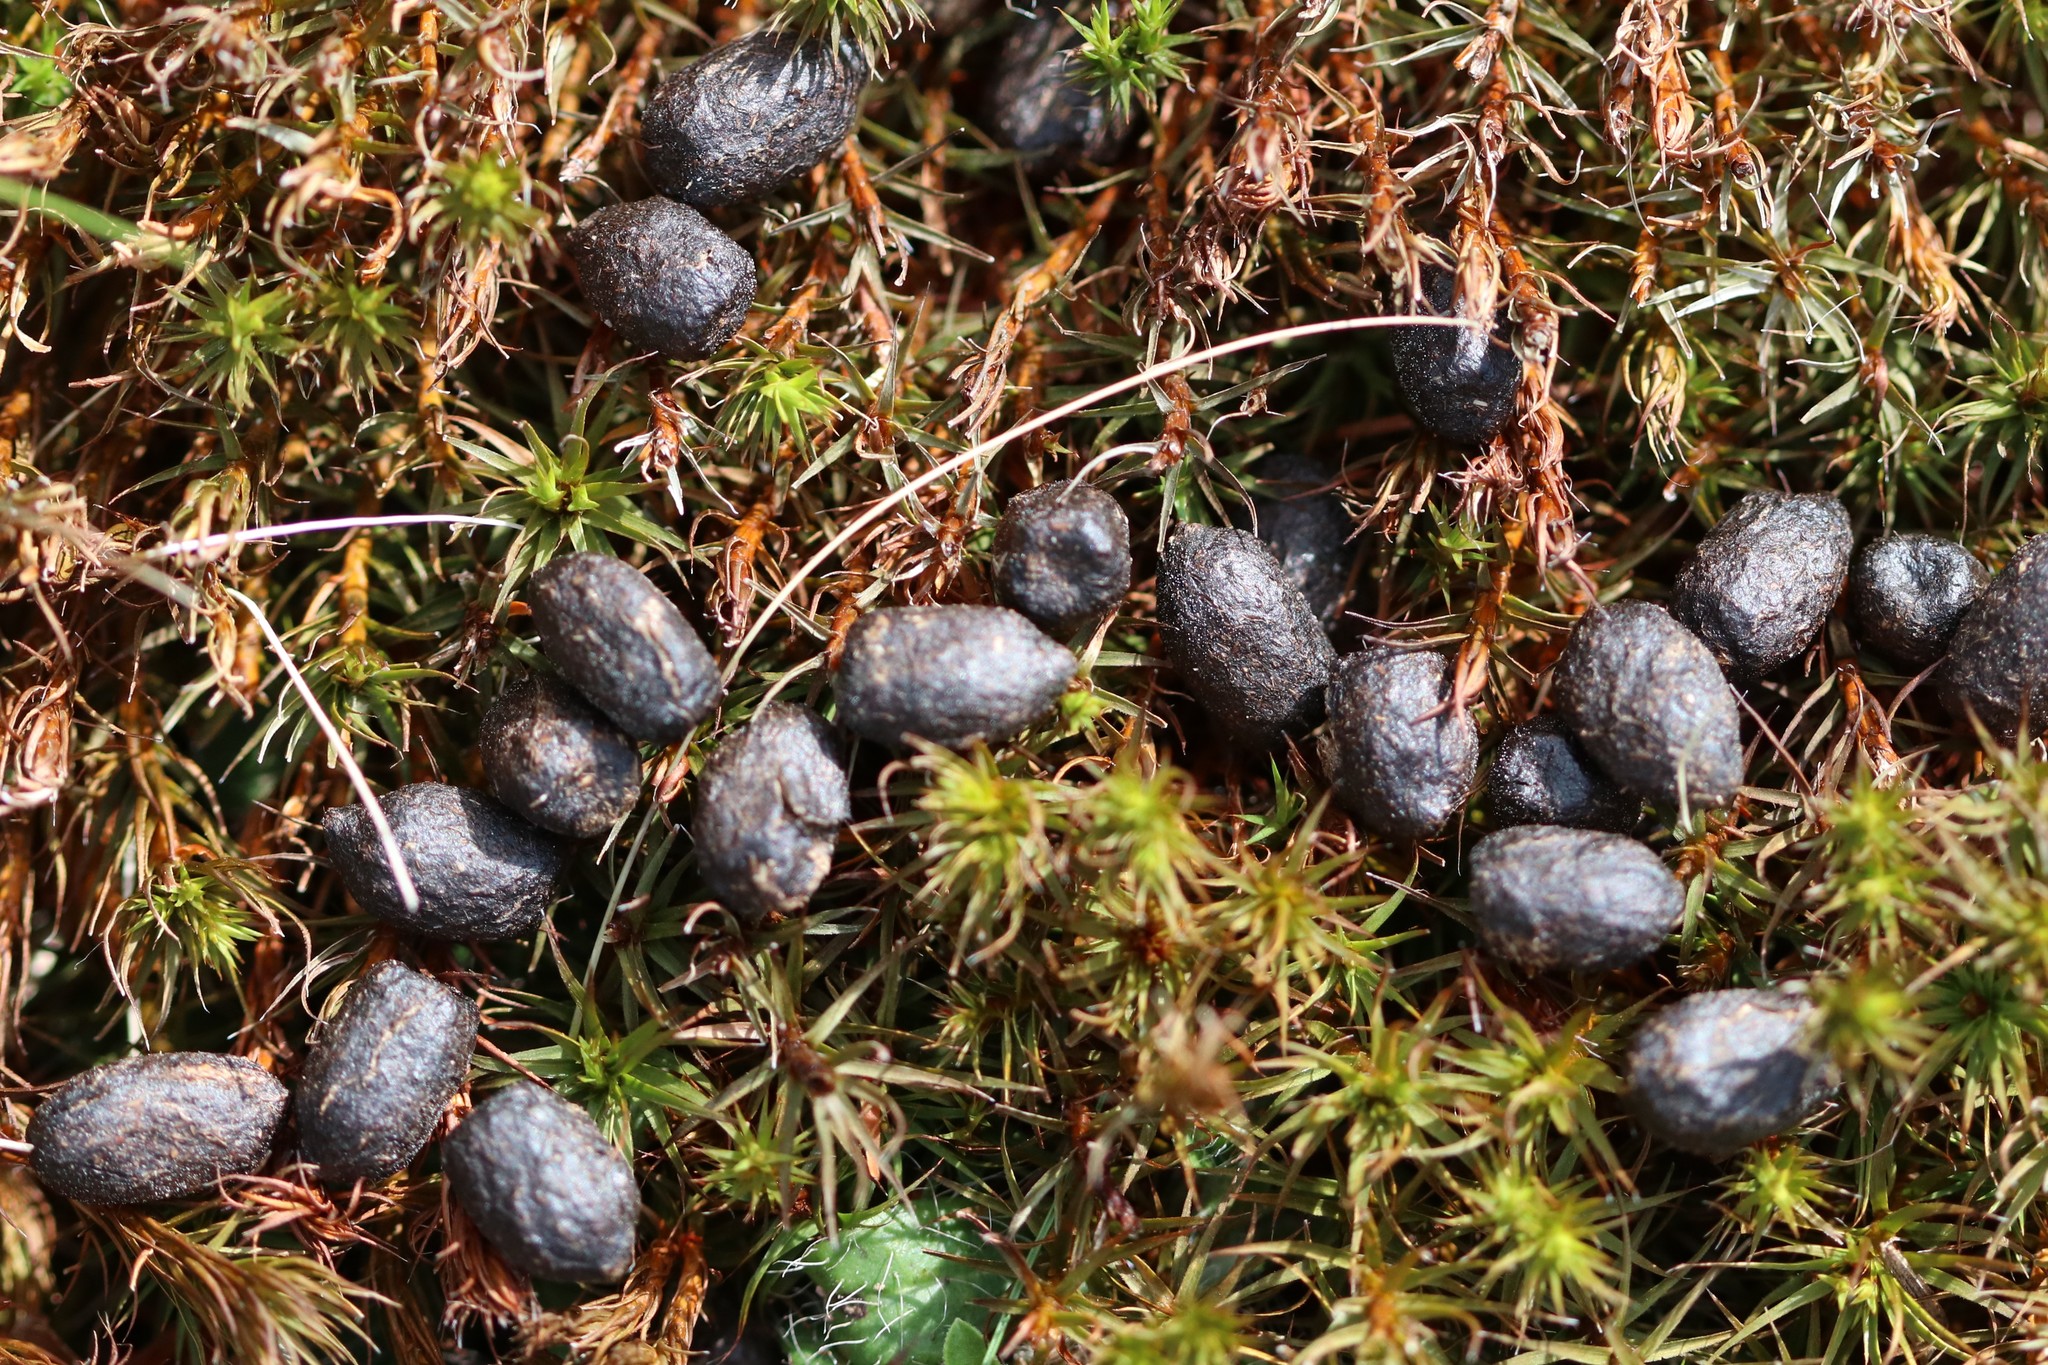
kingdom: Animalia
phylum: Chordata
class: Mammalia
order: Artiodactyla
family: Cervidae
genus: Odocoileus
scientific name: Odocoileus virginianus
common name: White-tailed deer
